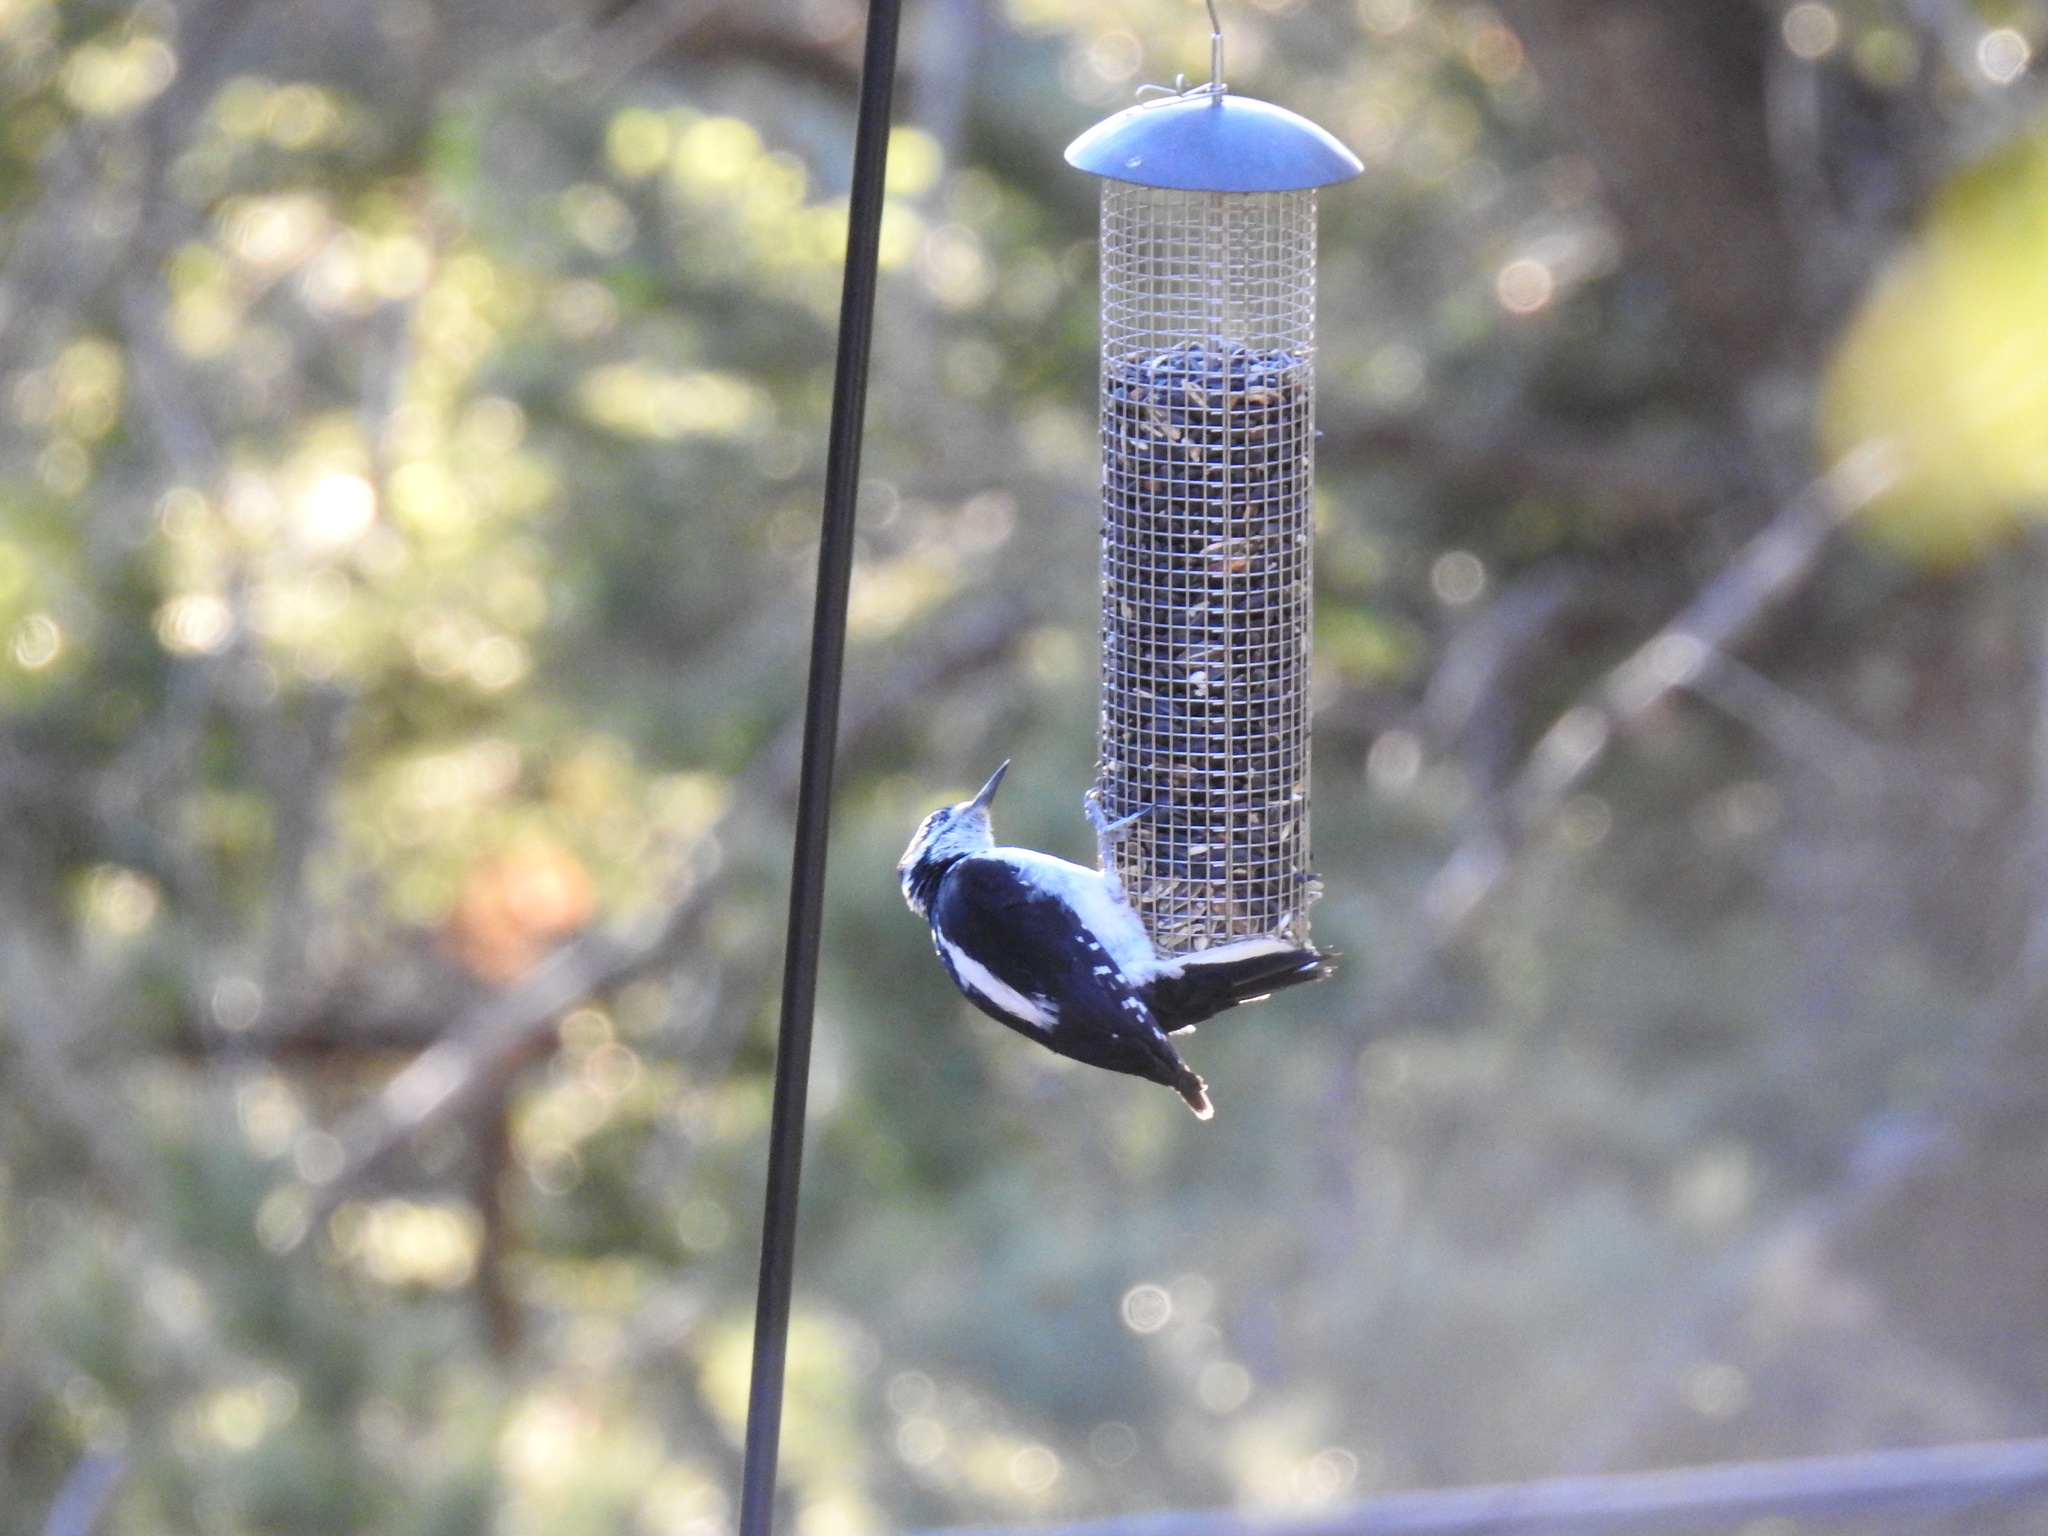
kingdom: Animalia
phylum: Chordata
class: Aves
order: Piciformes
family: Picidae
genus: Leuconotopicus
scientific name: Leuconotopicus villosus
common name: Hairy woodpecker
